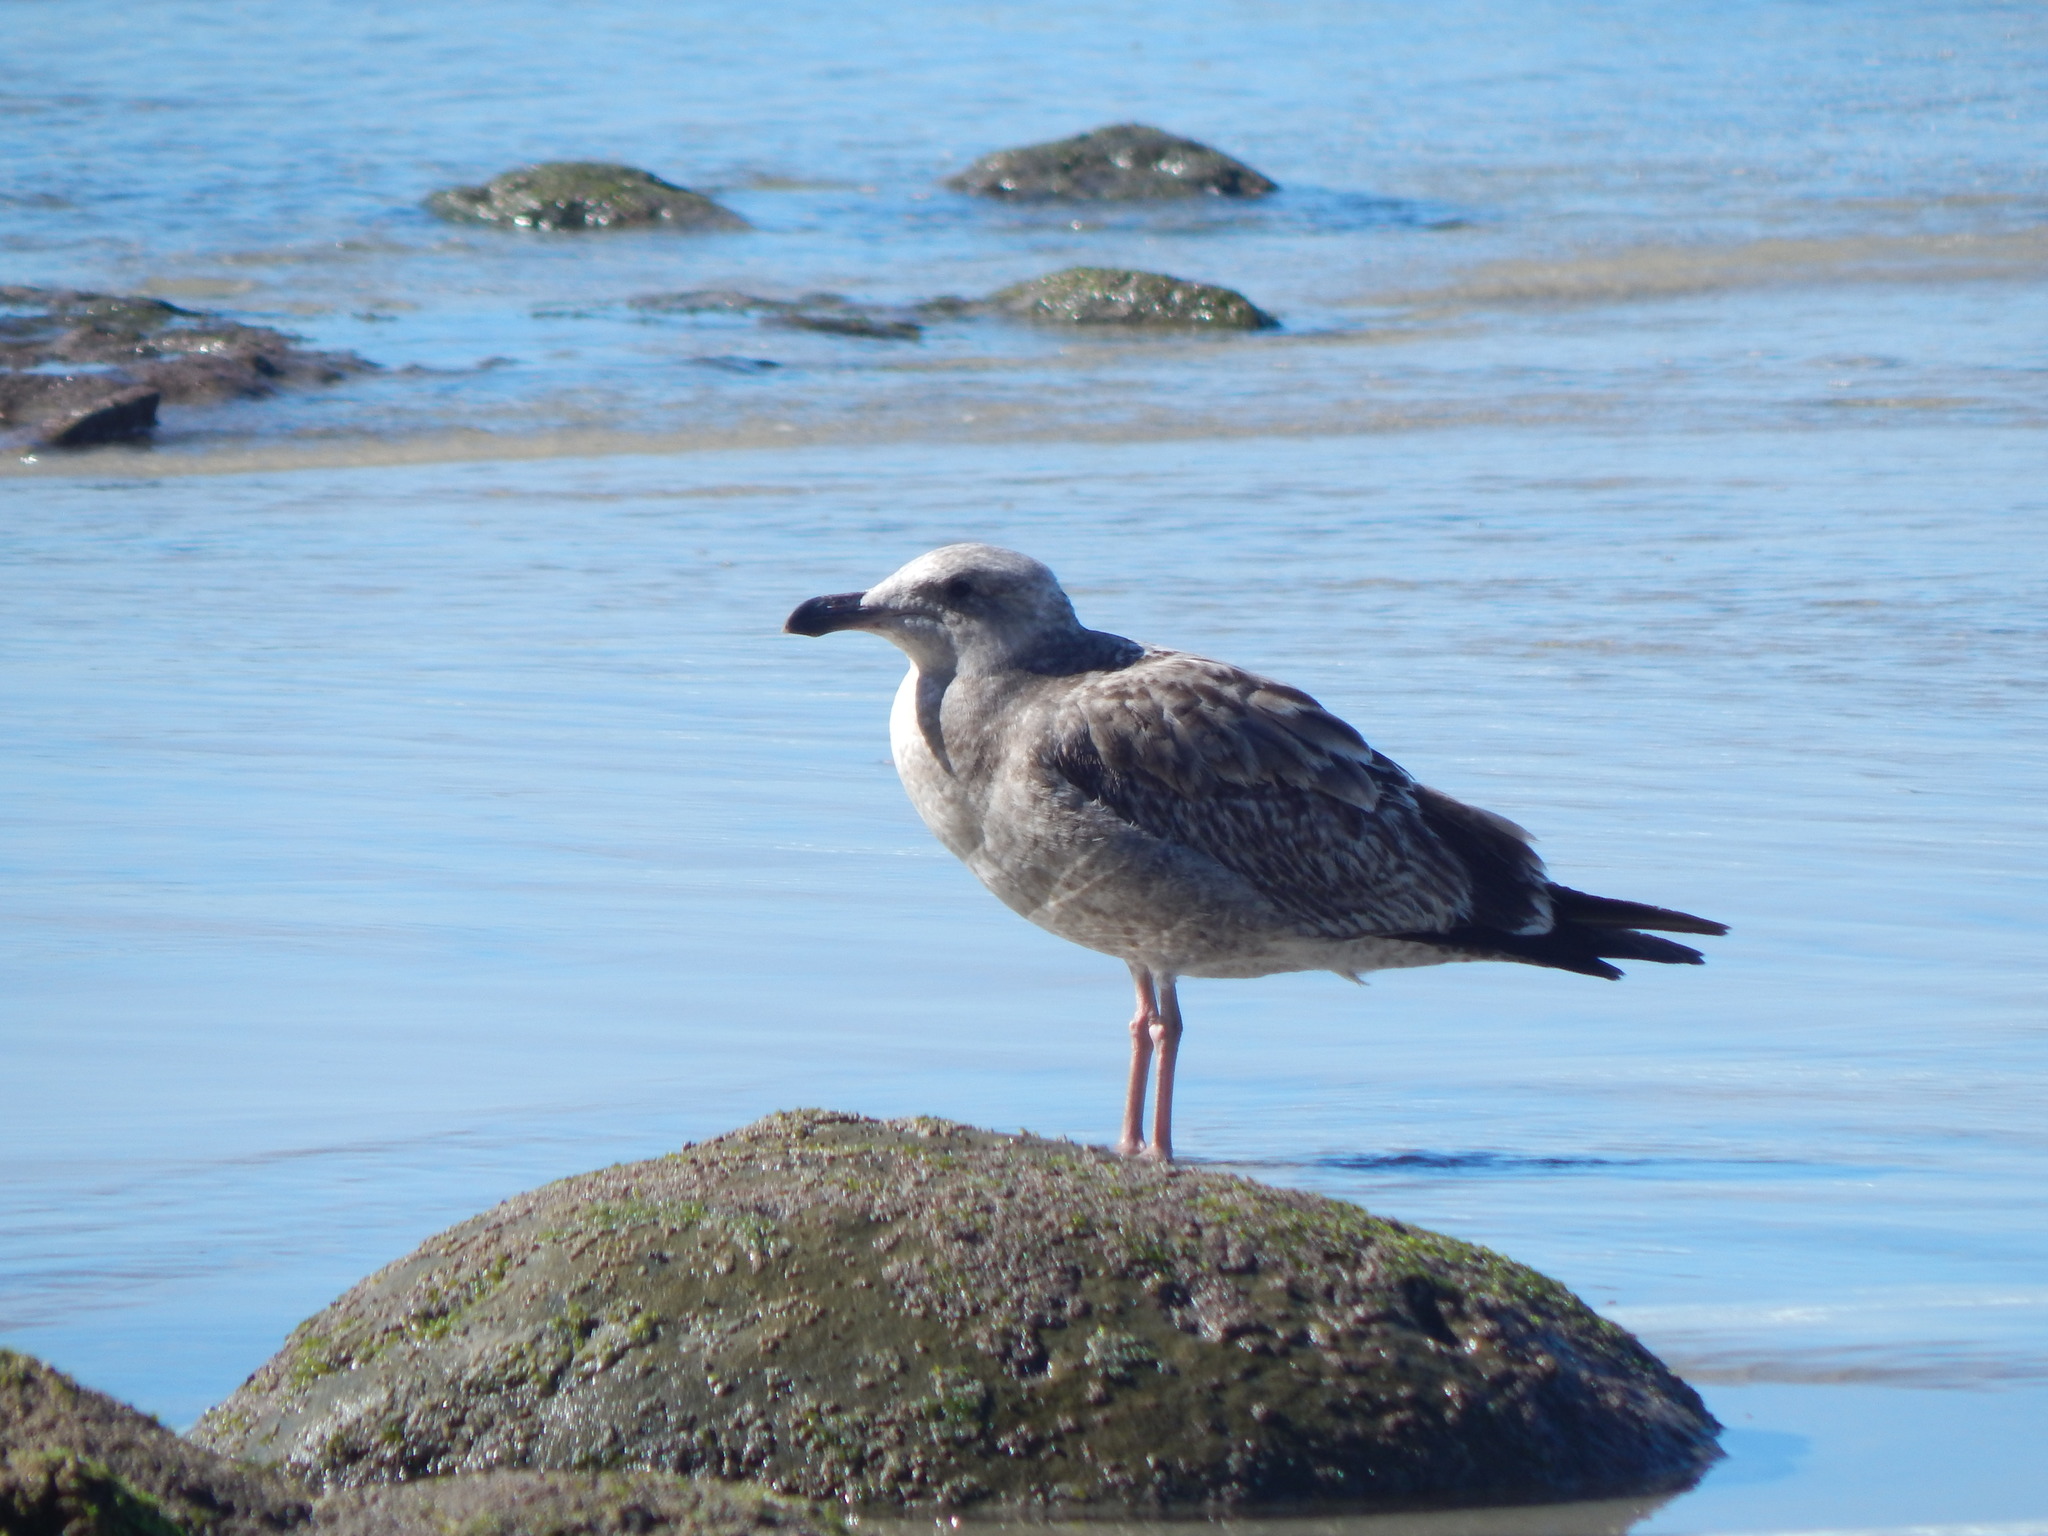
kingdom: Animalia
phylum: Chordata
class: Aves
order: Charadriiformes
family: Laridae
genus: Larus
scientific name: Larus occidentalis
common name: Western gull
